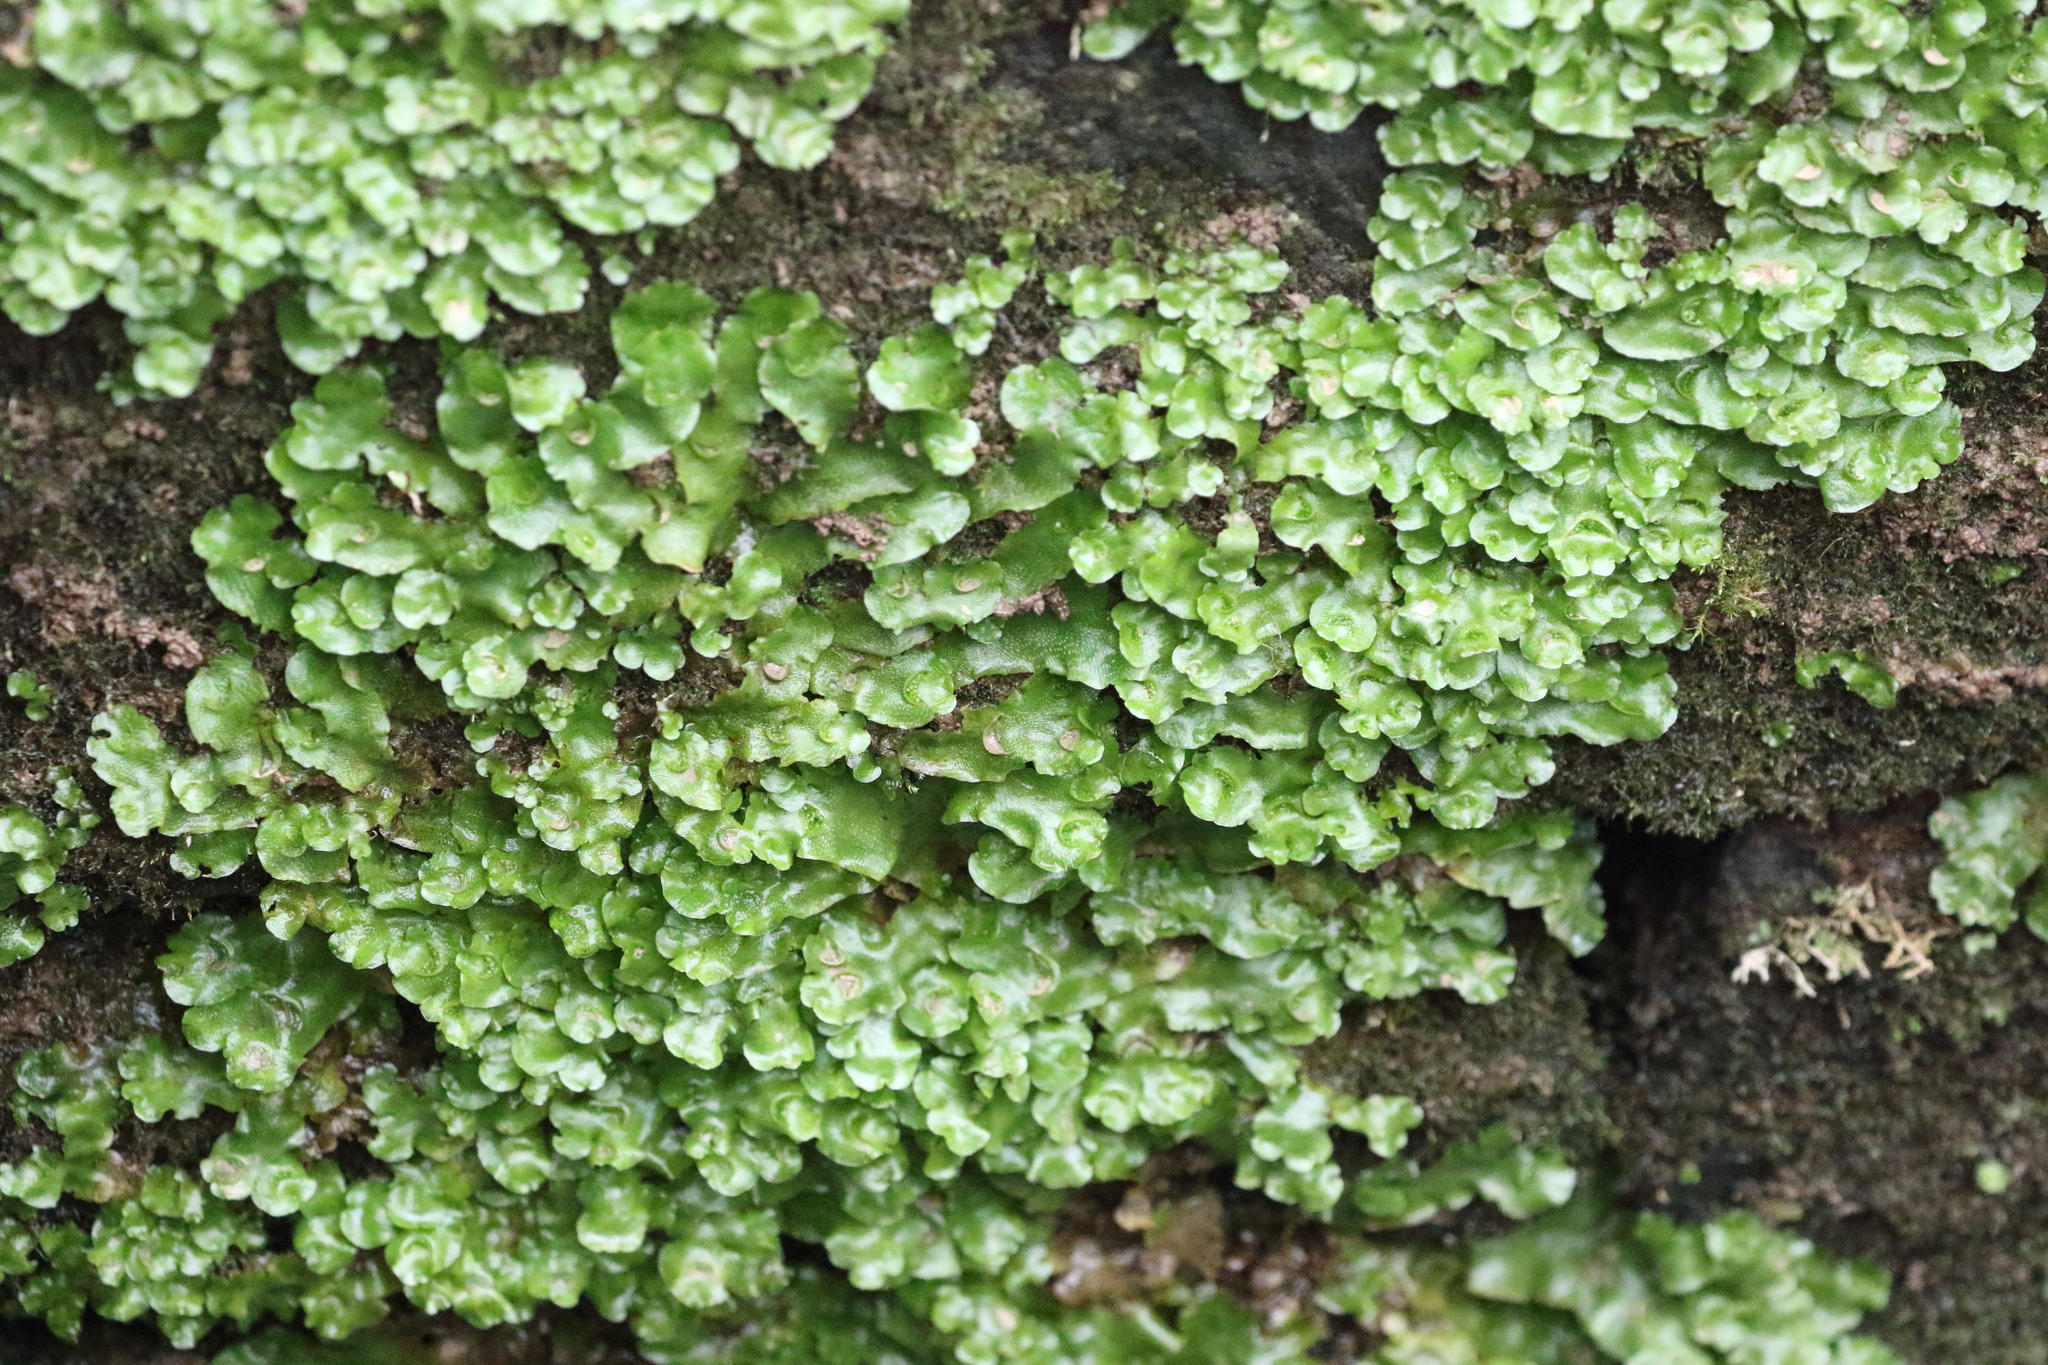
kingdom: Plantae
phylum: Marchantiophyta
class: Marchantiopsida
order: Lunulariales
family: Lunulariaceae
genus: Lunularia
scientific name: Lunularia cruciata
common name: Crescent-cup liverwort
